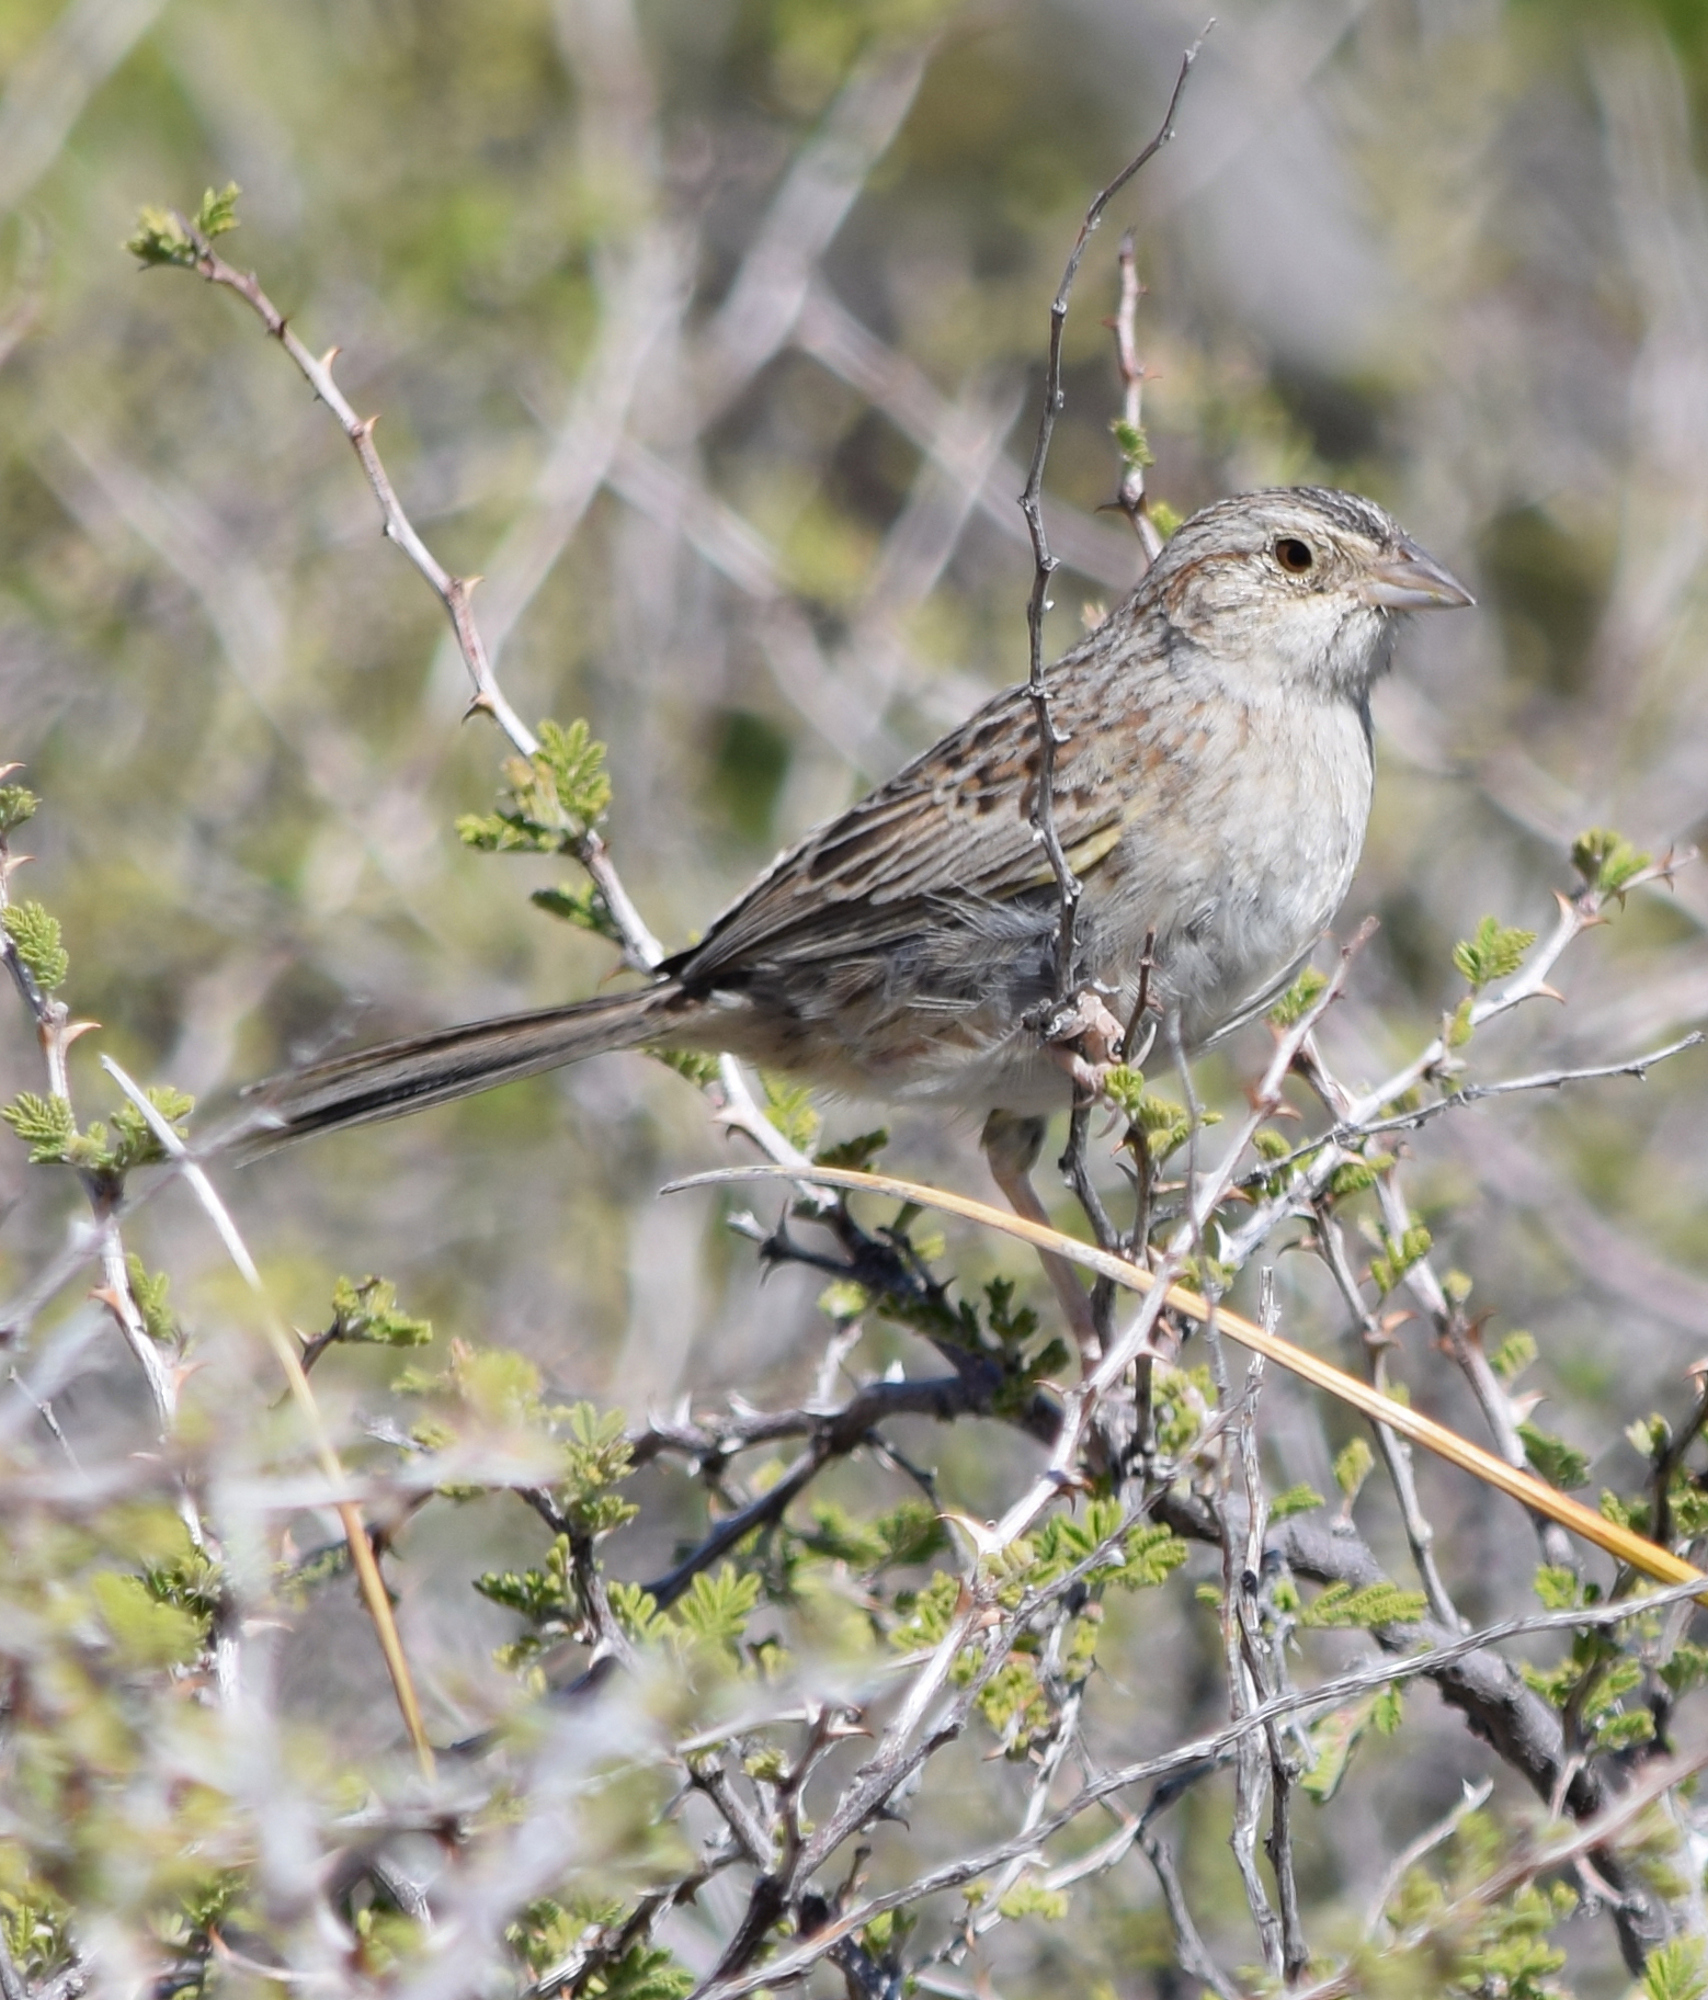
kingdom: Animalia
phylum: Chordata
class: Aves
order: Passeriformes
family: Passerellidae
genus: Peucaea
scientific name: Peucaea cassinii
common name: Cassin's sparrow
